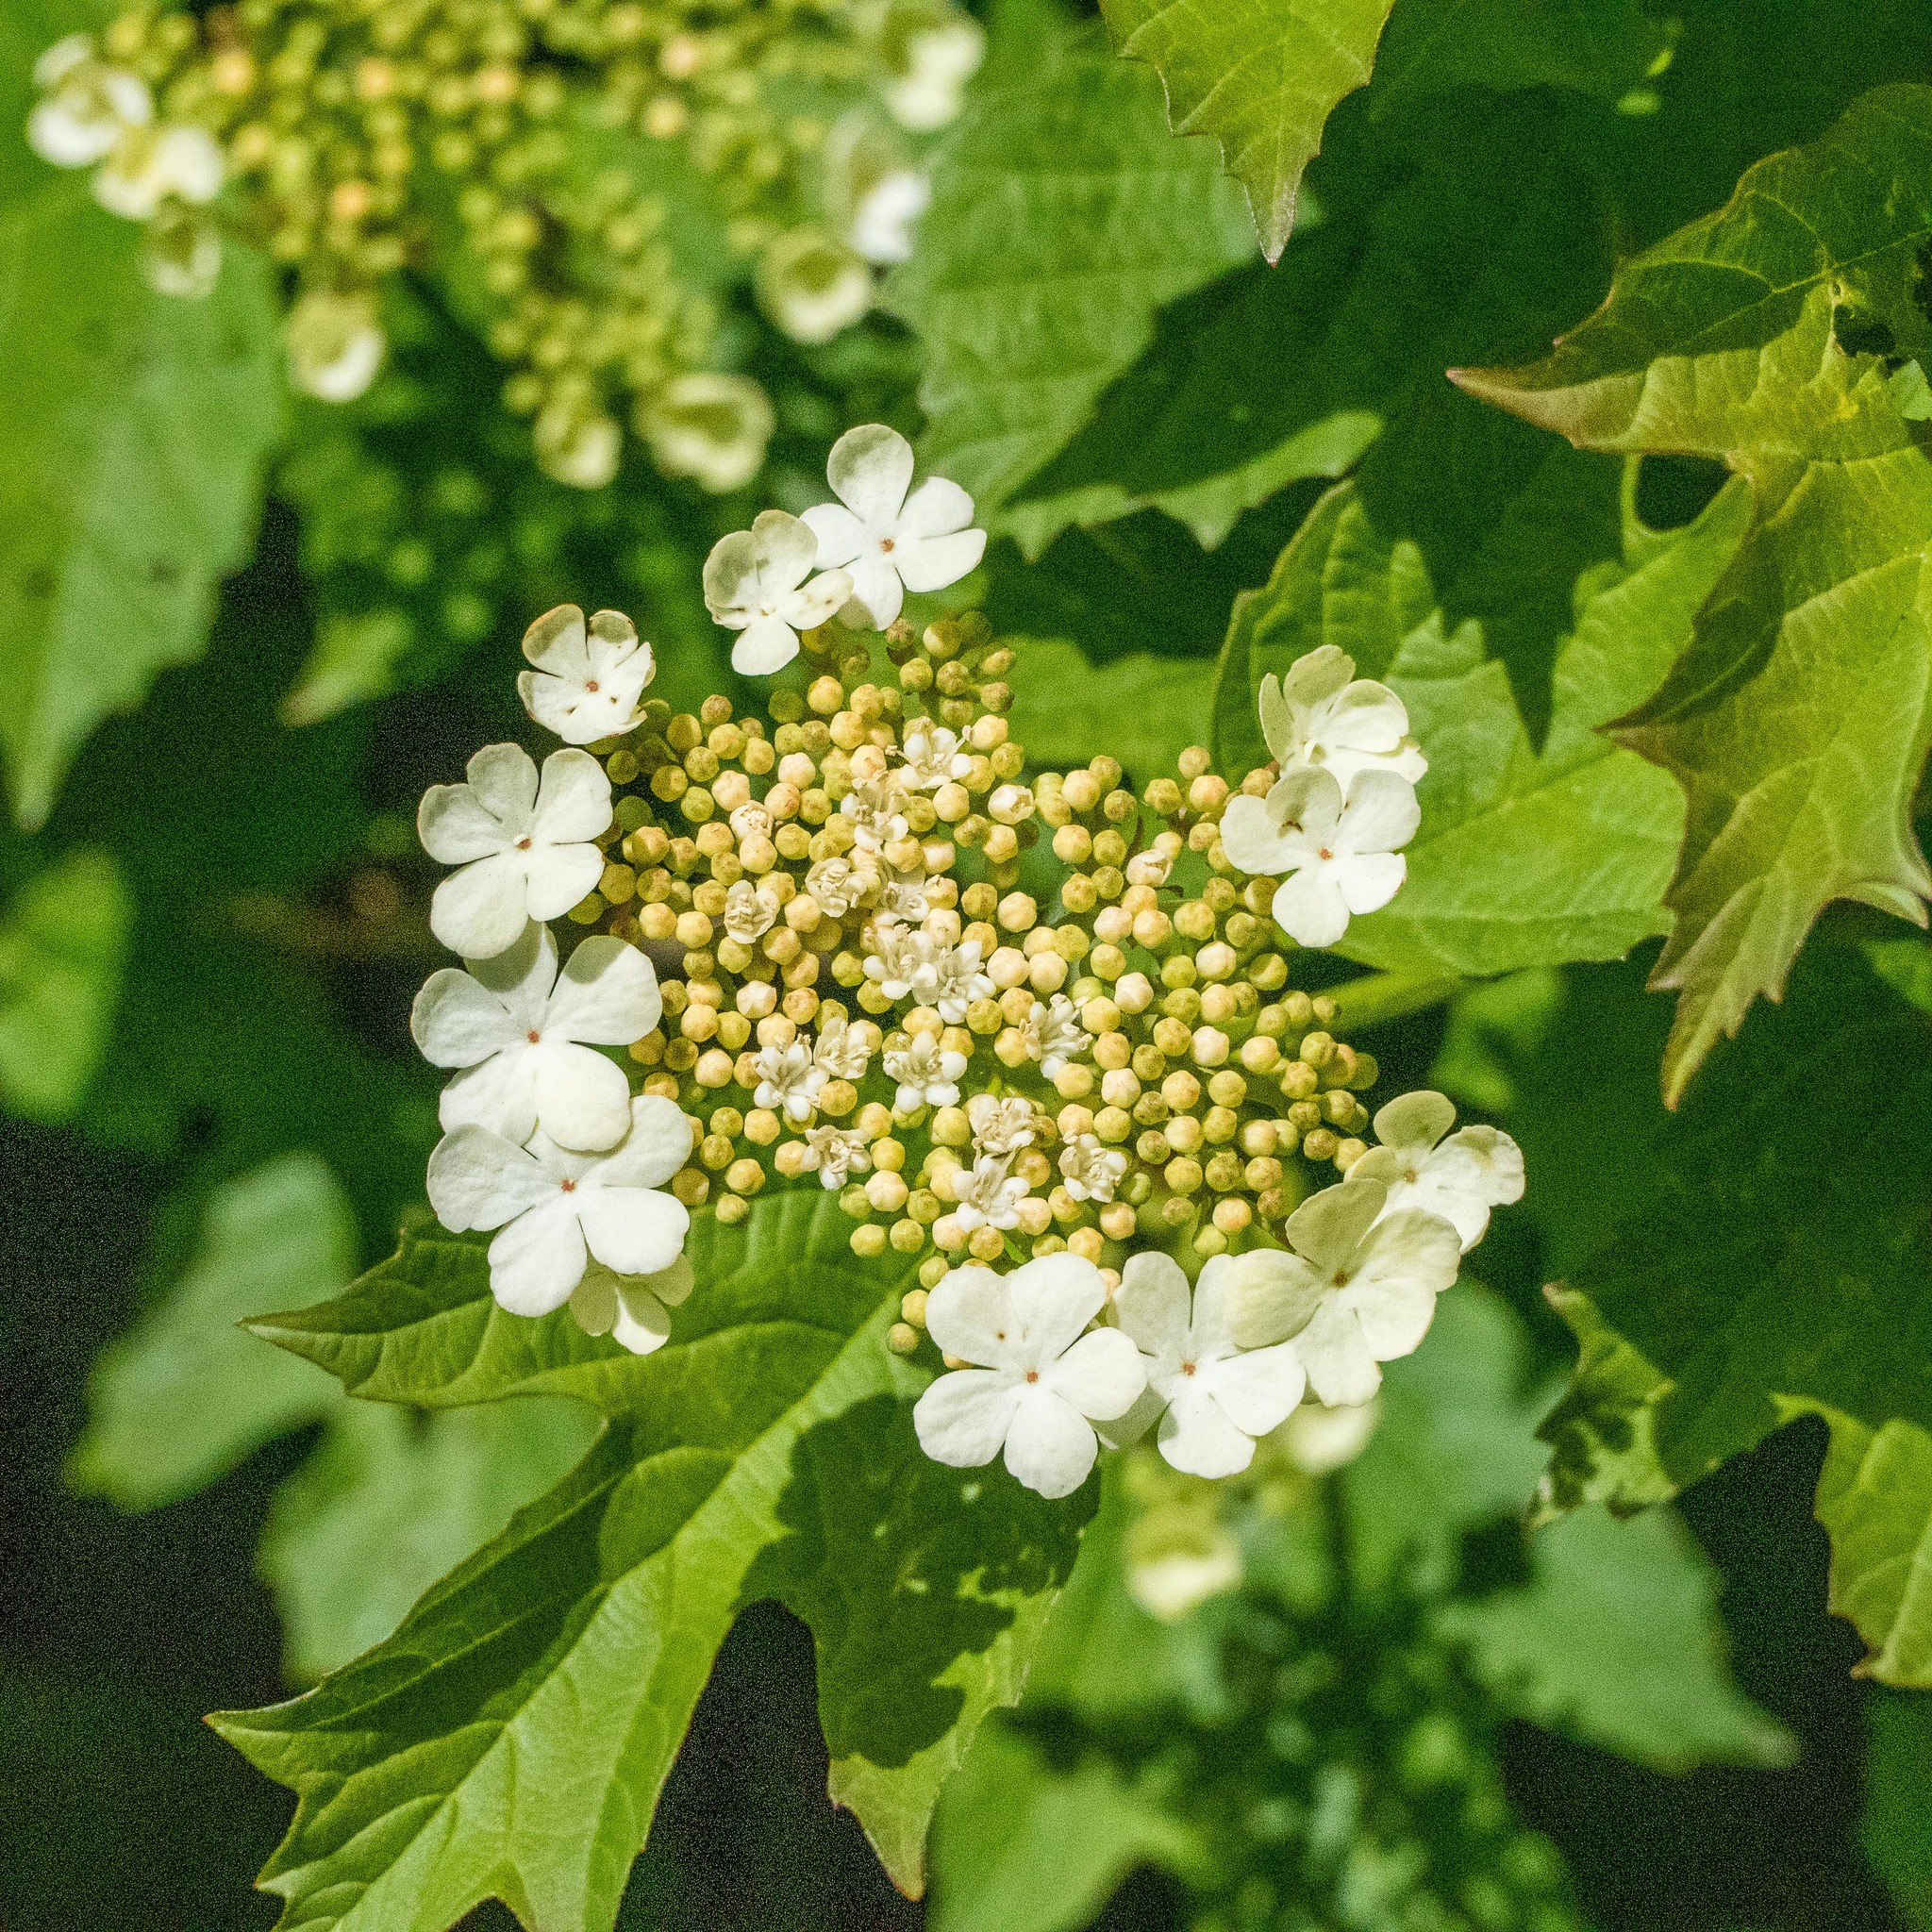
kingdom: Plantae
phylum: Tracheophyta
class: Magnoliopsida
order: Dipsacales
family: Viburnaceae
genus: Viburnum
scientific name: Viburnum opulus
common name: Guelder-rose
